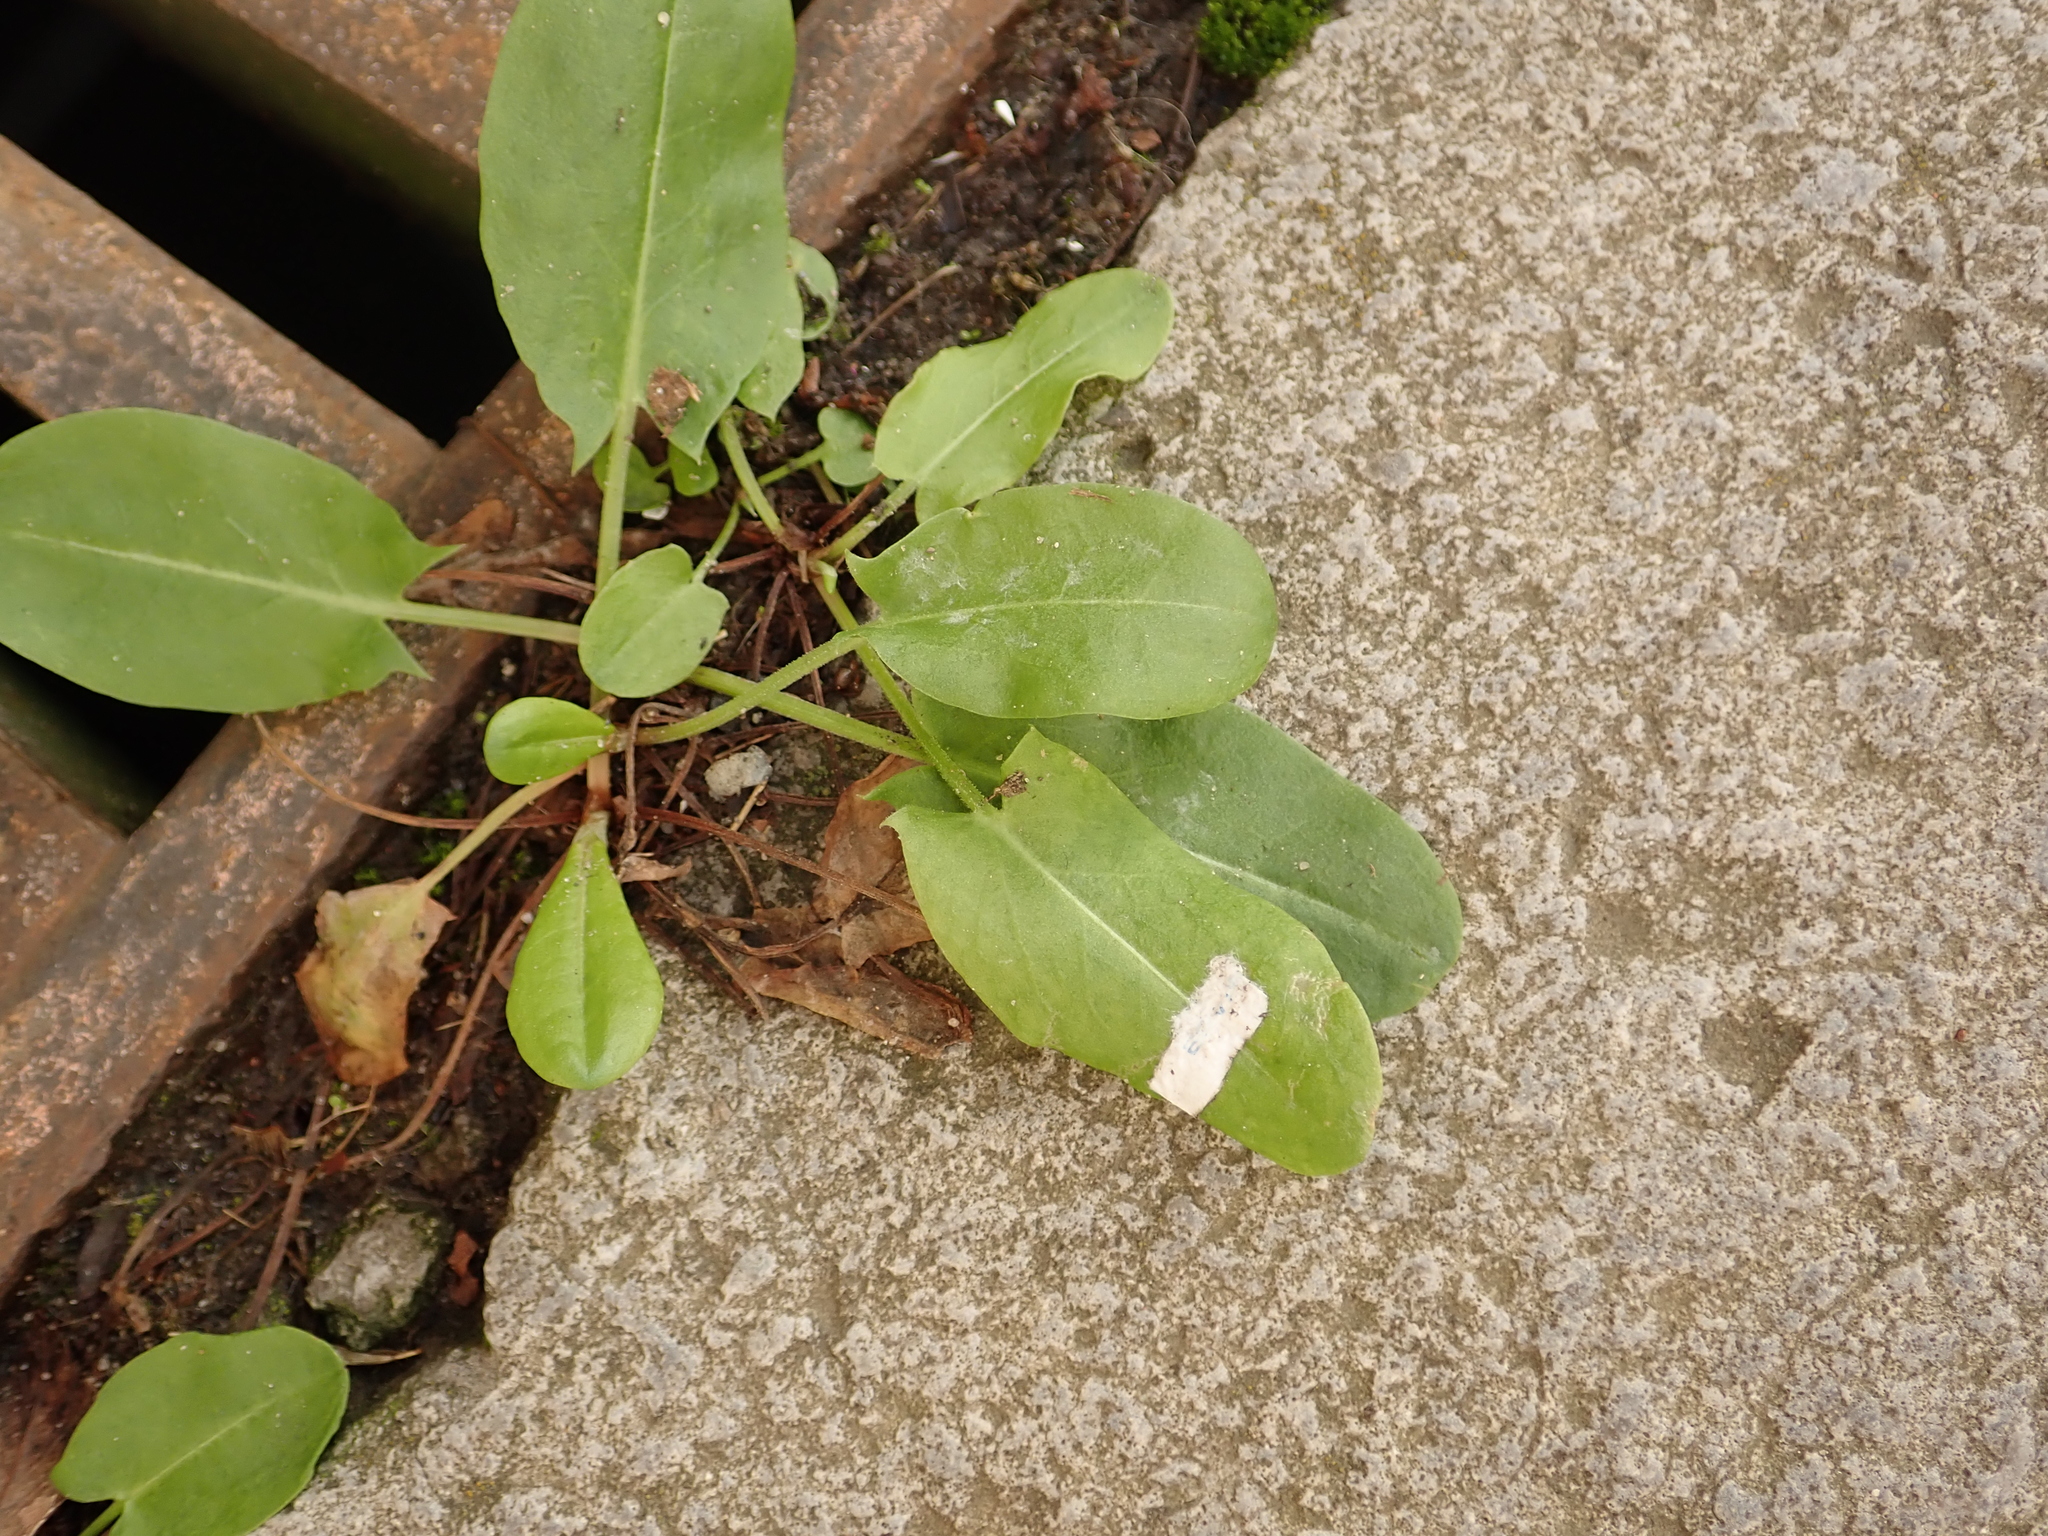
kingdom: Plantae
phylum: Tracheophyta
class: Magnoliopsida
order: Caryophyllales
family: Polygonaceae
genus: Rumex
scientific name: Rumex acetosa
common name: Garden sorrel
